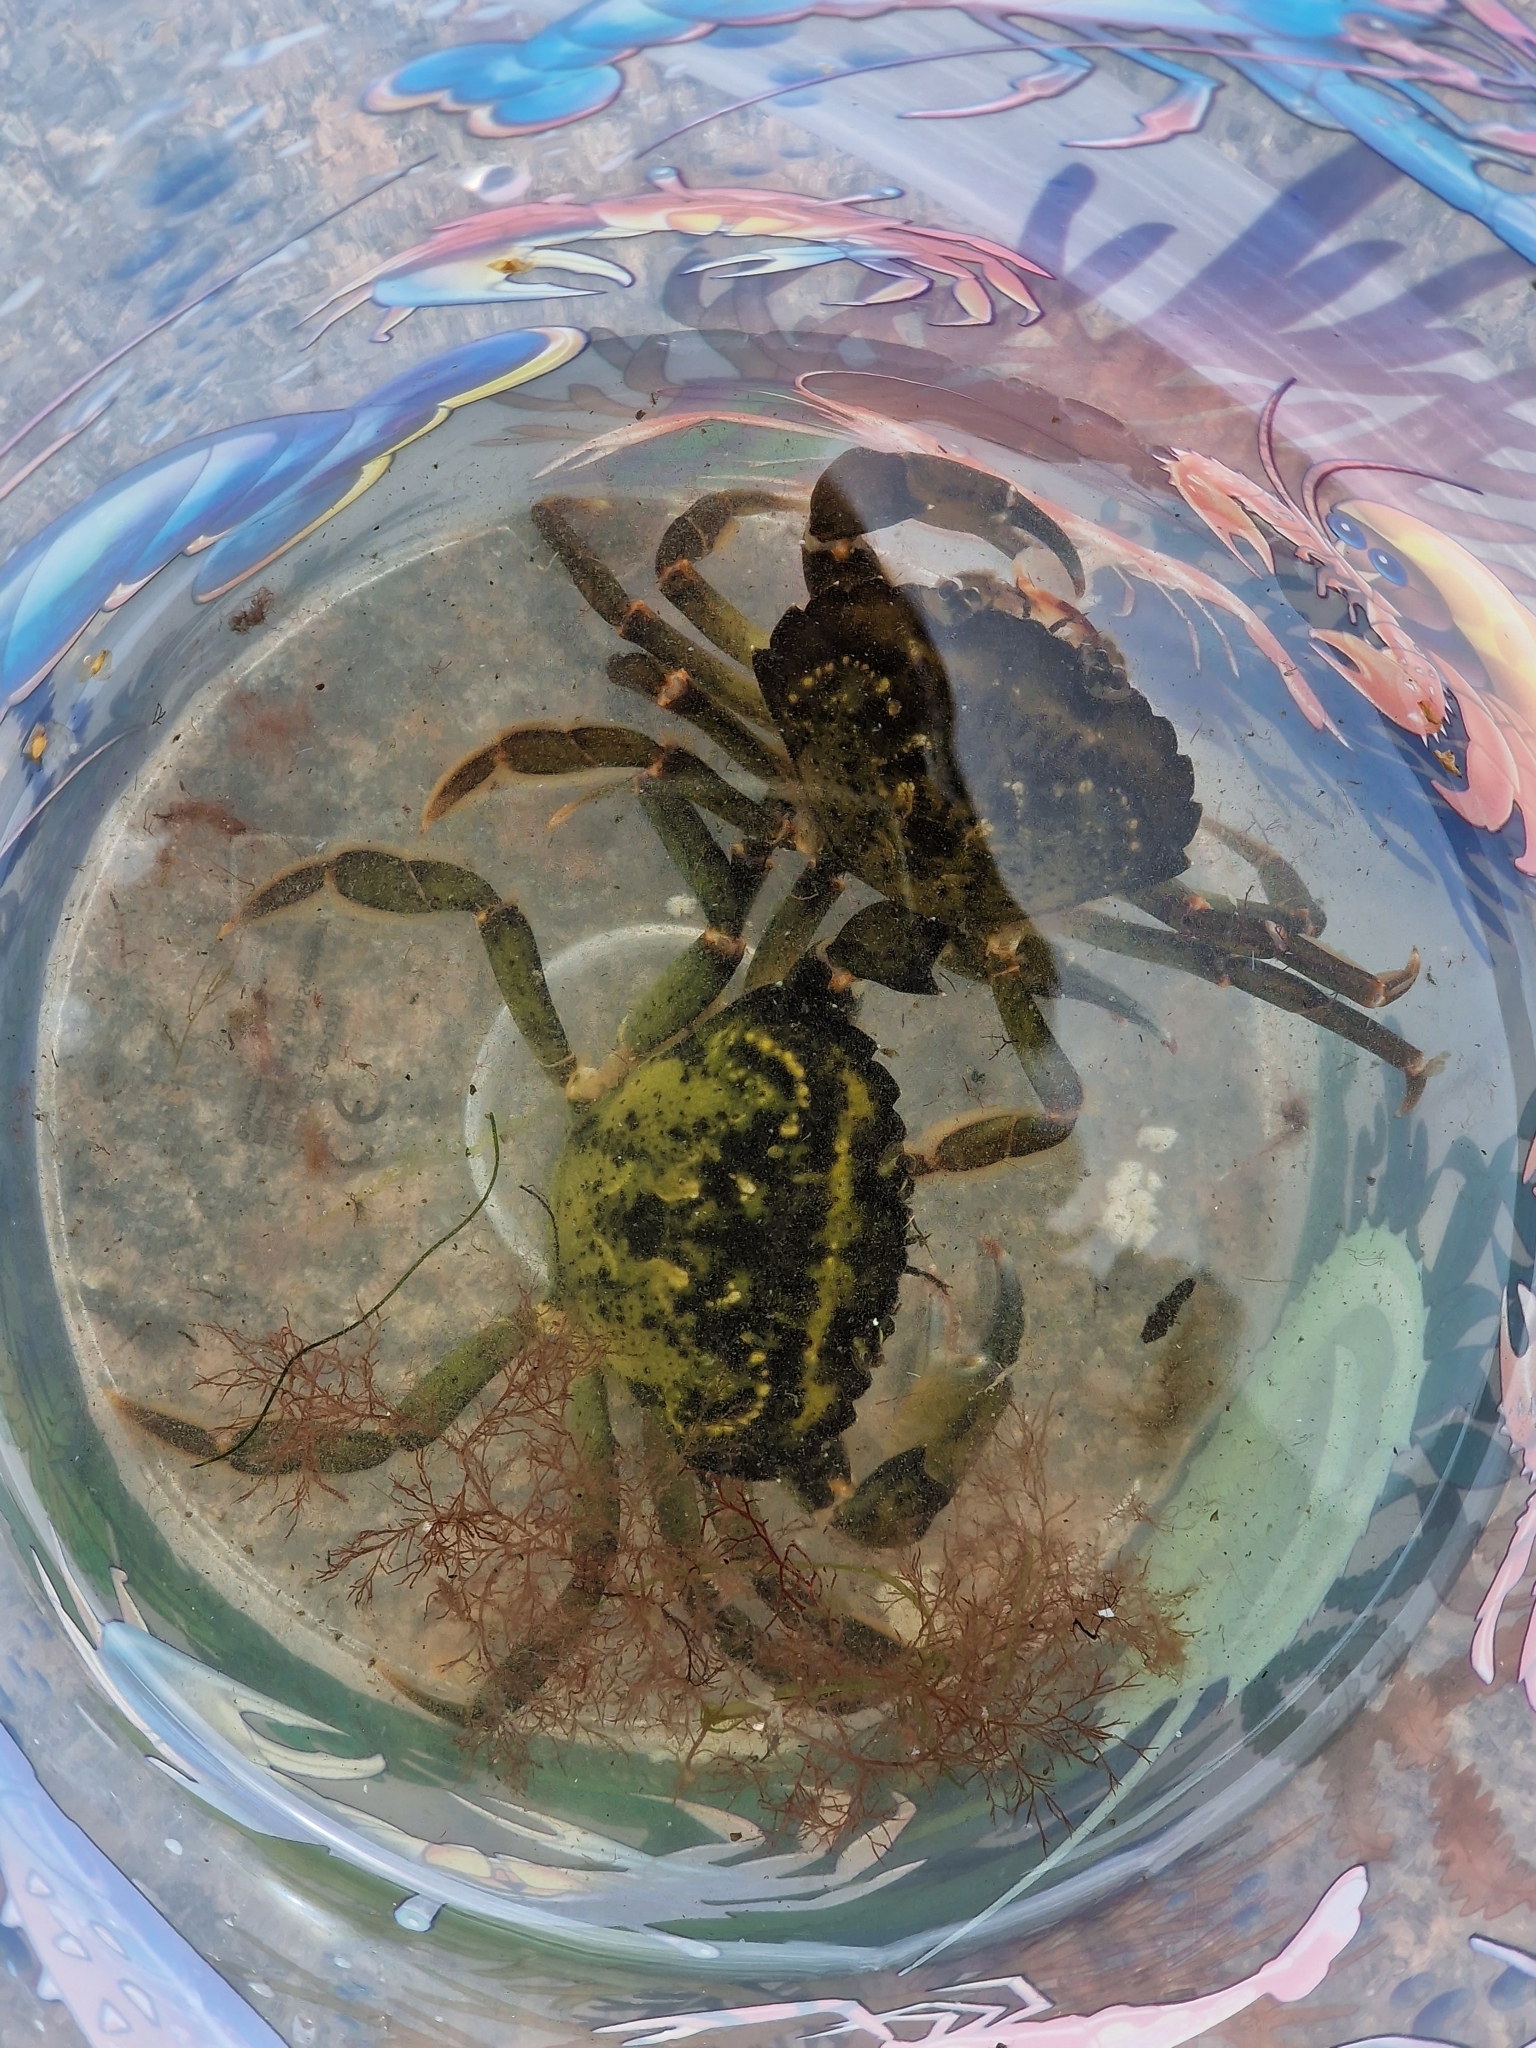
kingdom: Animalia
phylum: Arthropoda
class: Malacostraca
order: Decapoda
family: Carcinidae
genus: Carcinus
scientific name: Carcinus maenas
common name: European green crab
